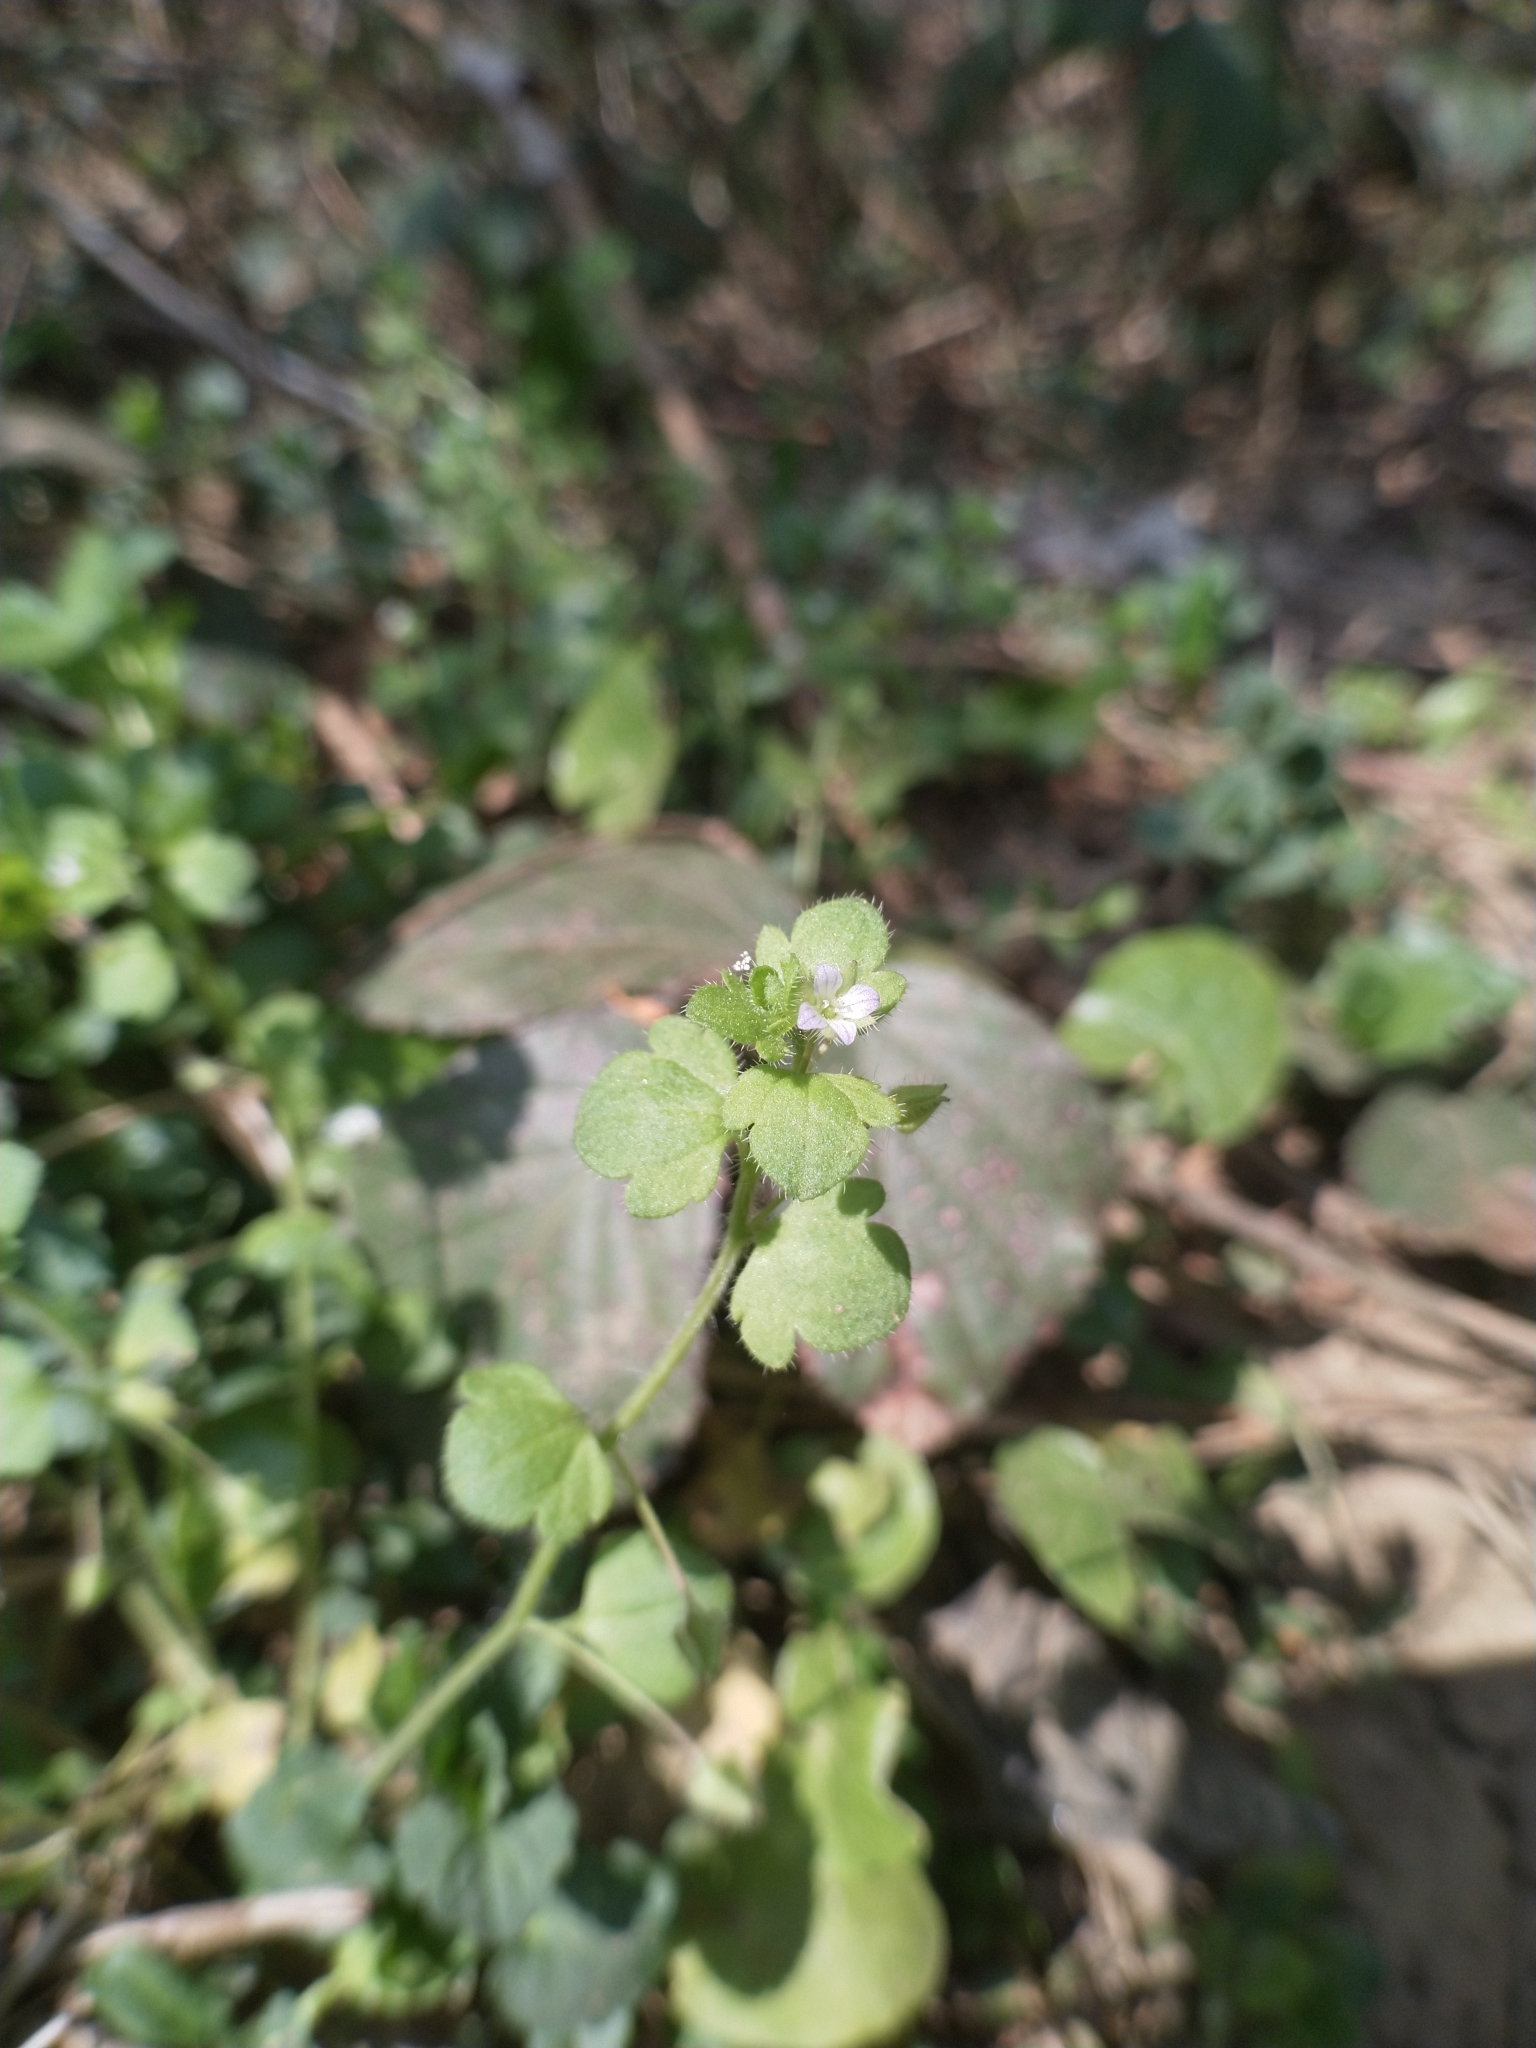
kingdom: Plantae
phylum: Tracheophyta
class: Magnoliopsida
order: Lamiales
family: Plantaginaceae
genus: Veronica
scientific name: Veronica hederifolia
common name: Ivy-leaved speedwell
